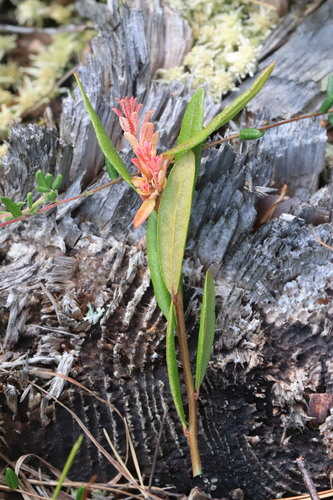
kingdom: Fungi
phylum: Basidiomycota
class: Exobasidiomycetes
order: Exobasidiales
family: Exobasidiaceae
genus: Exobasidium
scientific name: Exobasidium cassandrae
